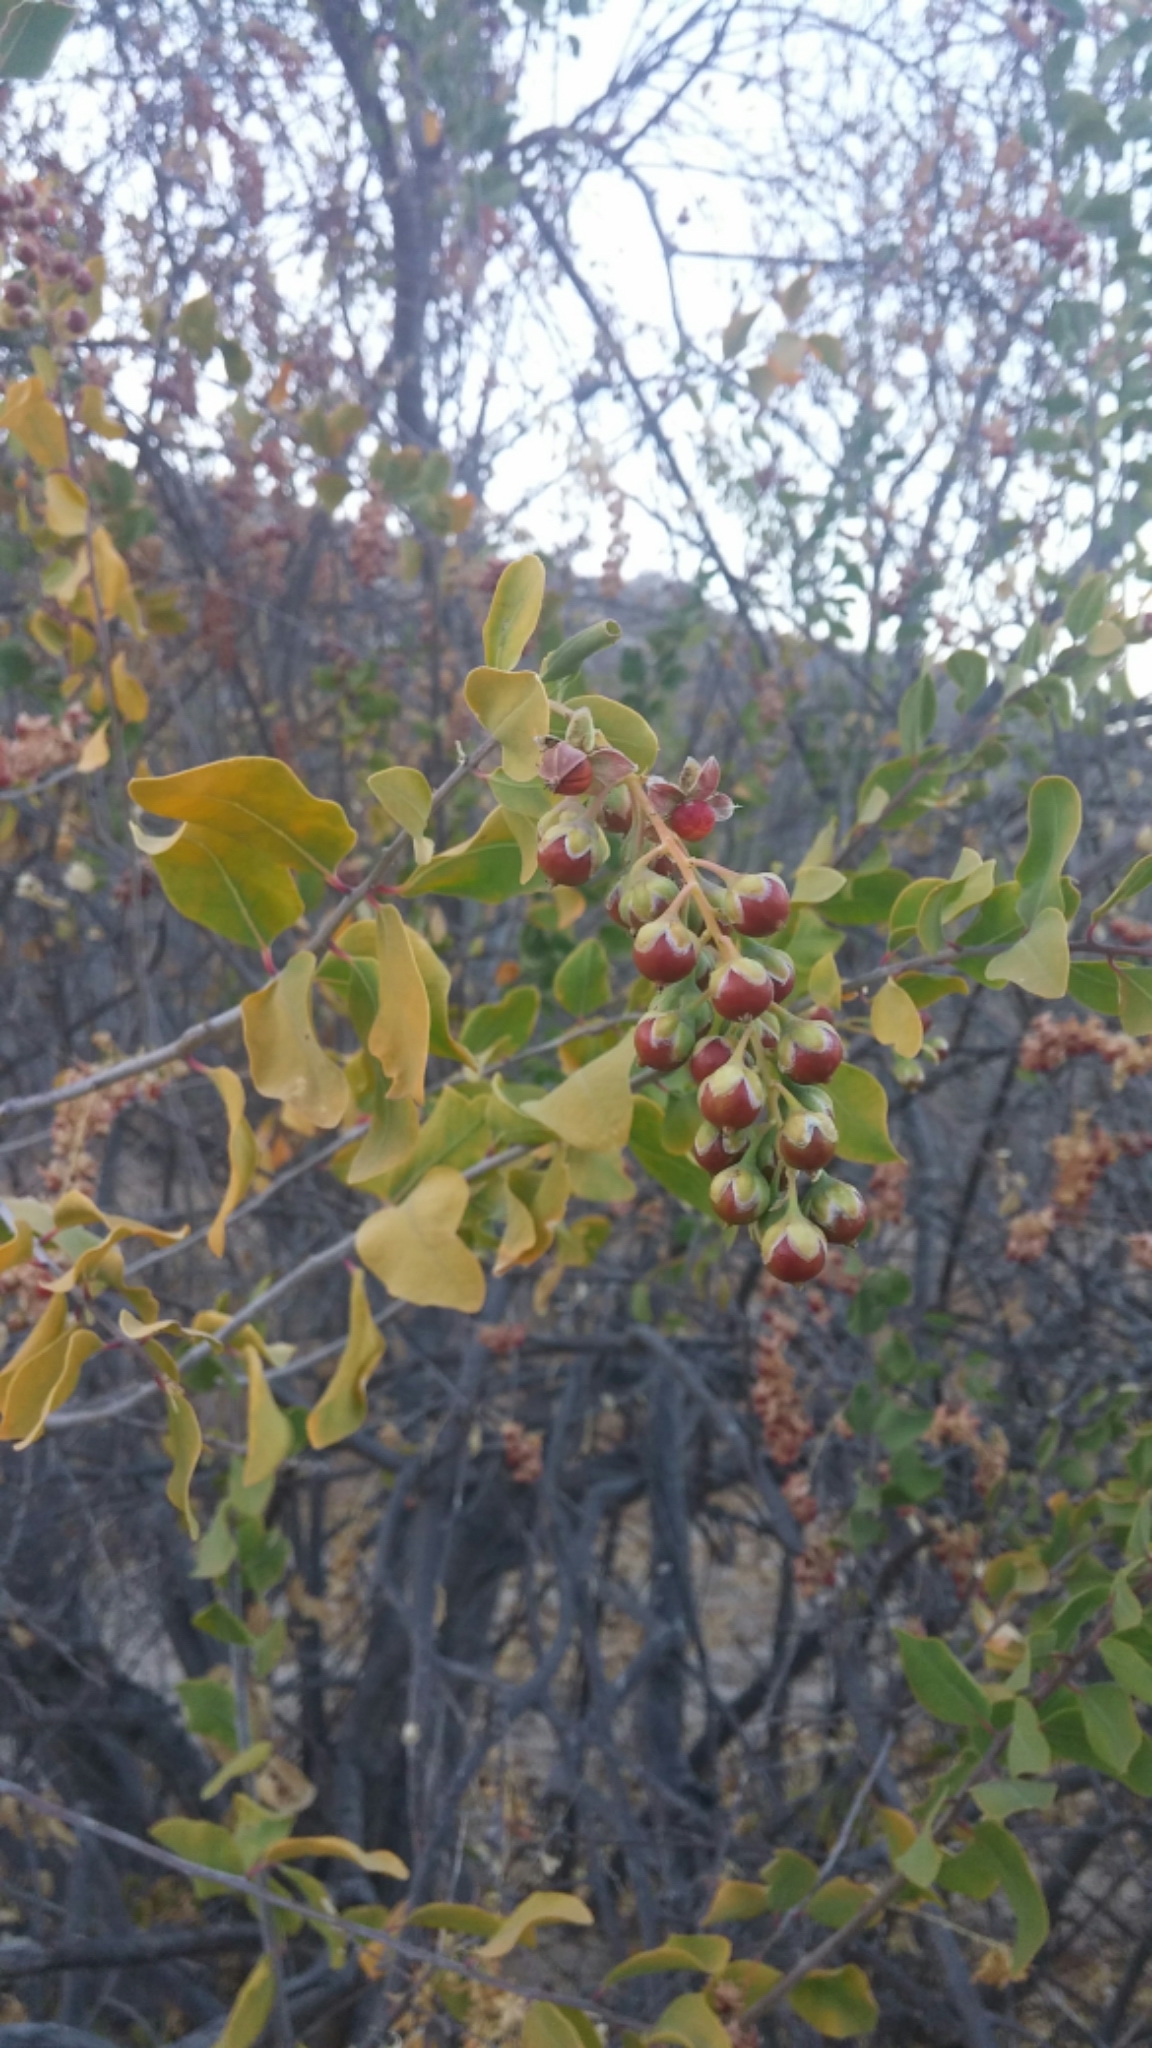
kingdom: Plantae
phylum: Tracheophyta
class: Magnoliopsida
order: Caryophyllales
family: Stegnospermataceae
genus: Stegnosperma
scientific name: Stegnosperma halimifolium
